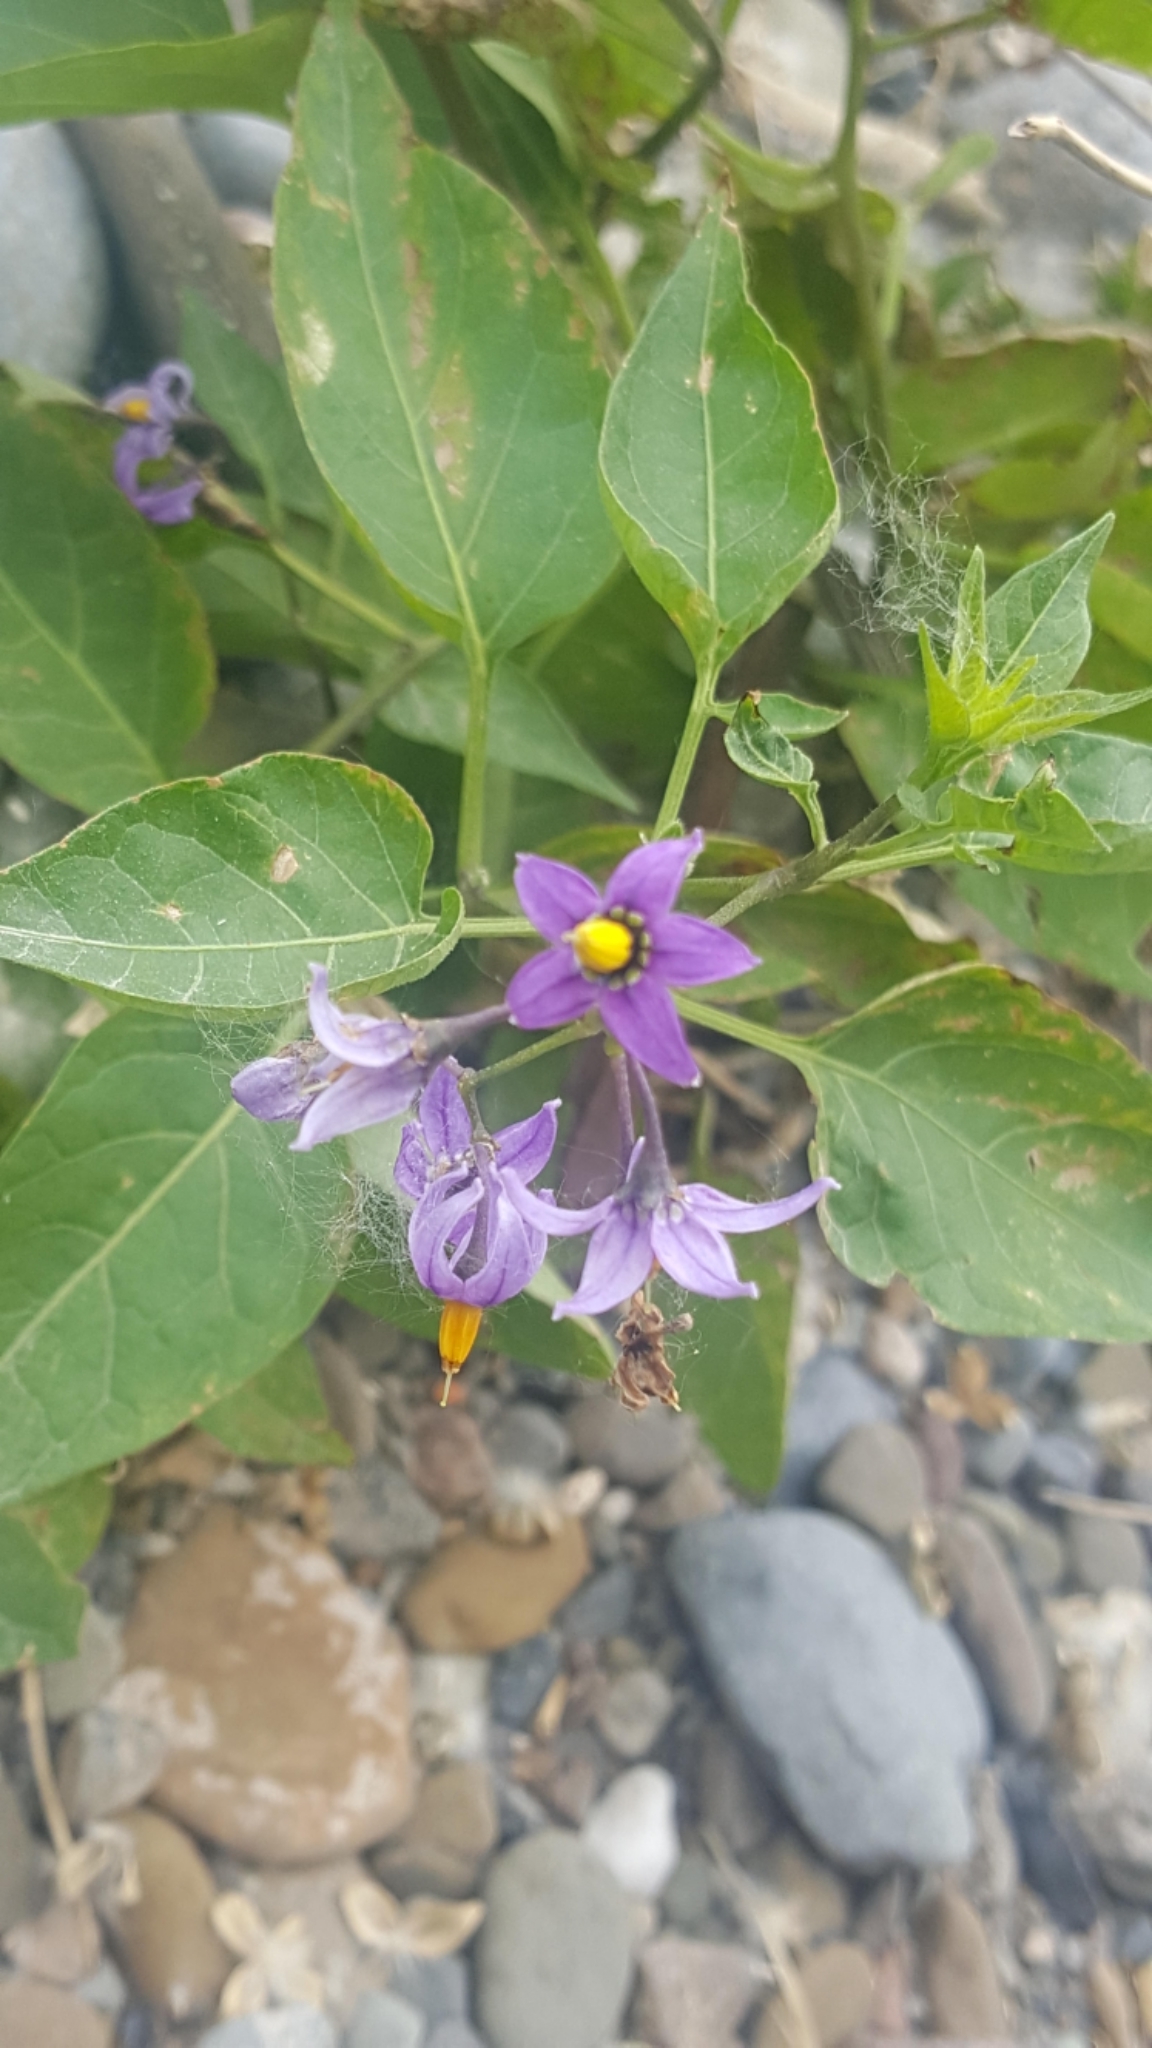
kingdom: Plantae
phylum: Tracheophyta
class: Magnoliopsida
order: Solanales
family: Solanaceae
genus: Solanum
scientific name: Solanum dulcamara
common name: Climbing nightshade
